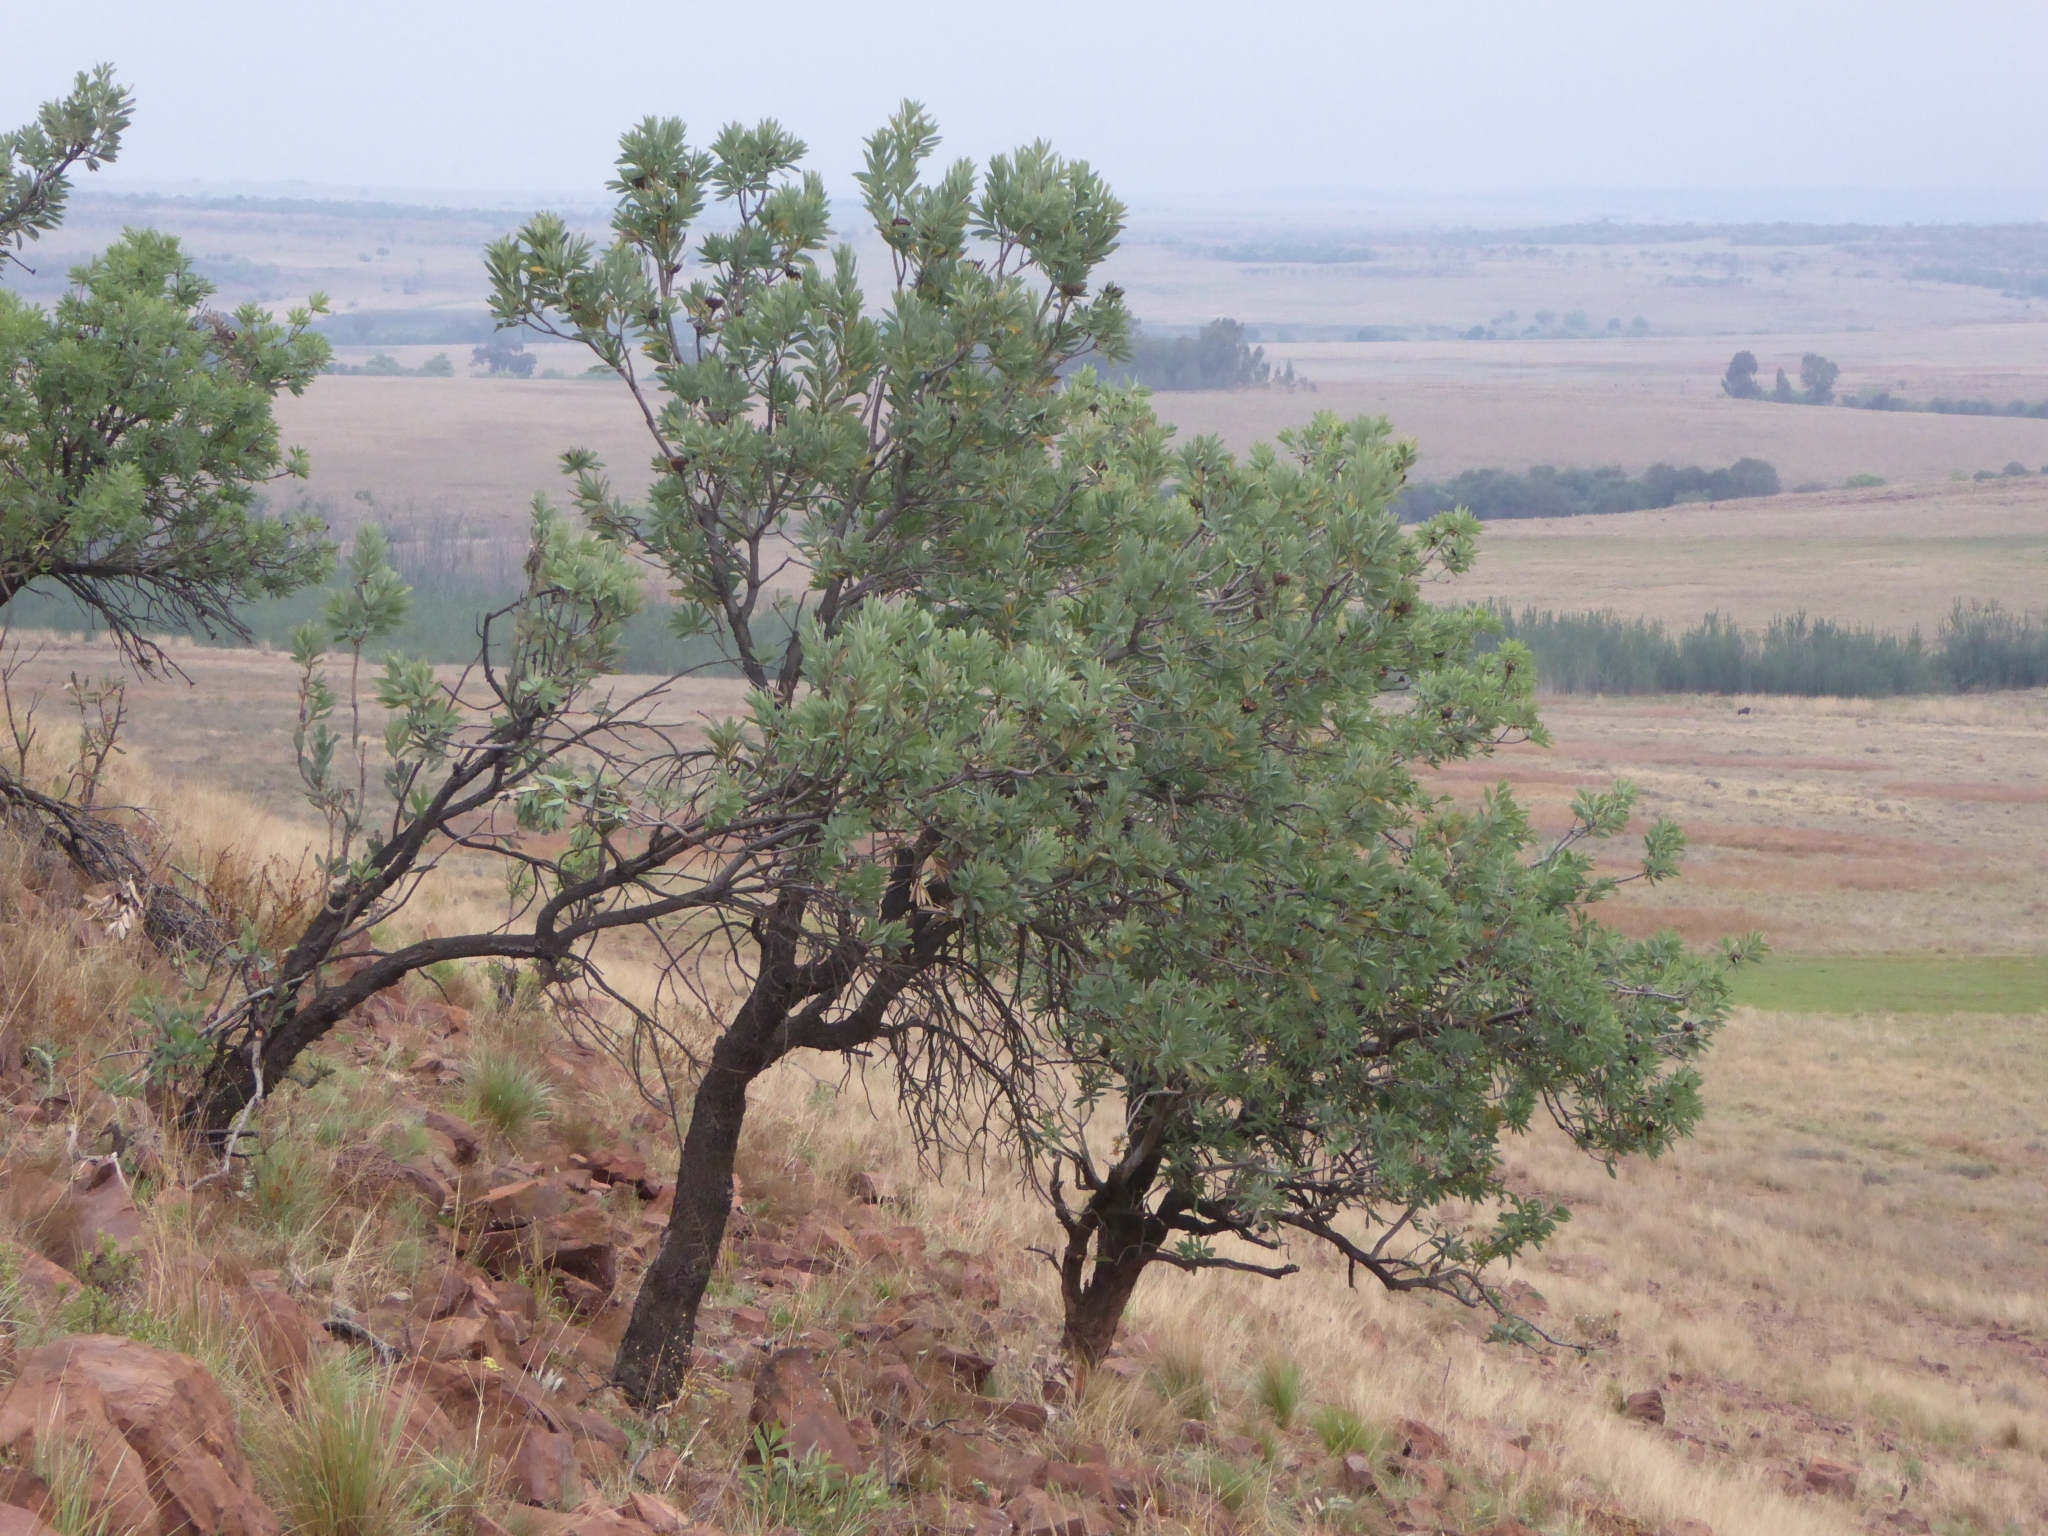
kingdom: Plantae
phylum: Tracheophyta
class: Magnoliopsida
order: Proteales
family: Proteaceae
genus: Protea
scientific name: Protea caffra
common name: Common sugarbush
